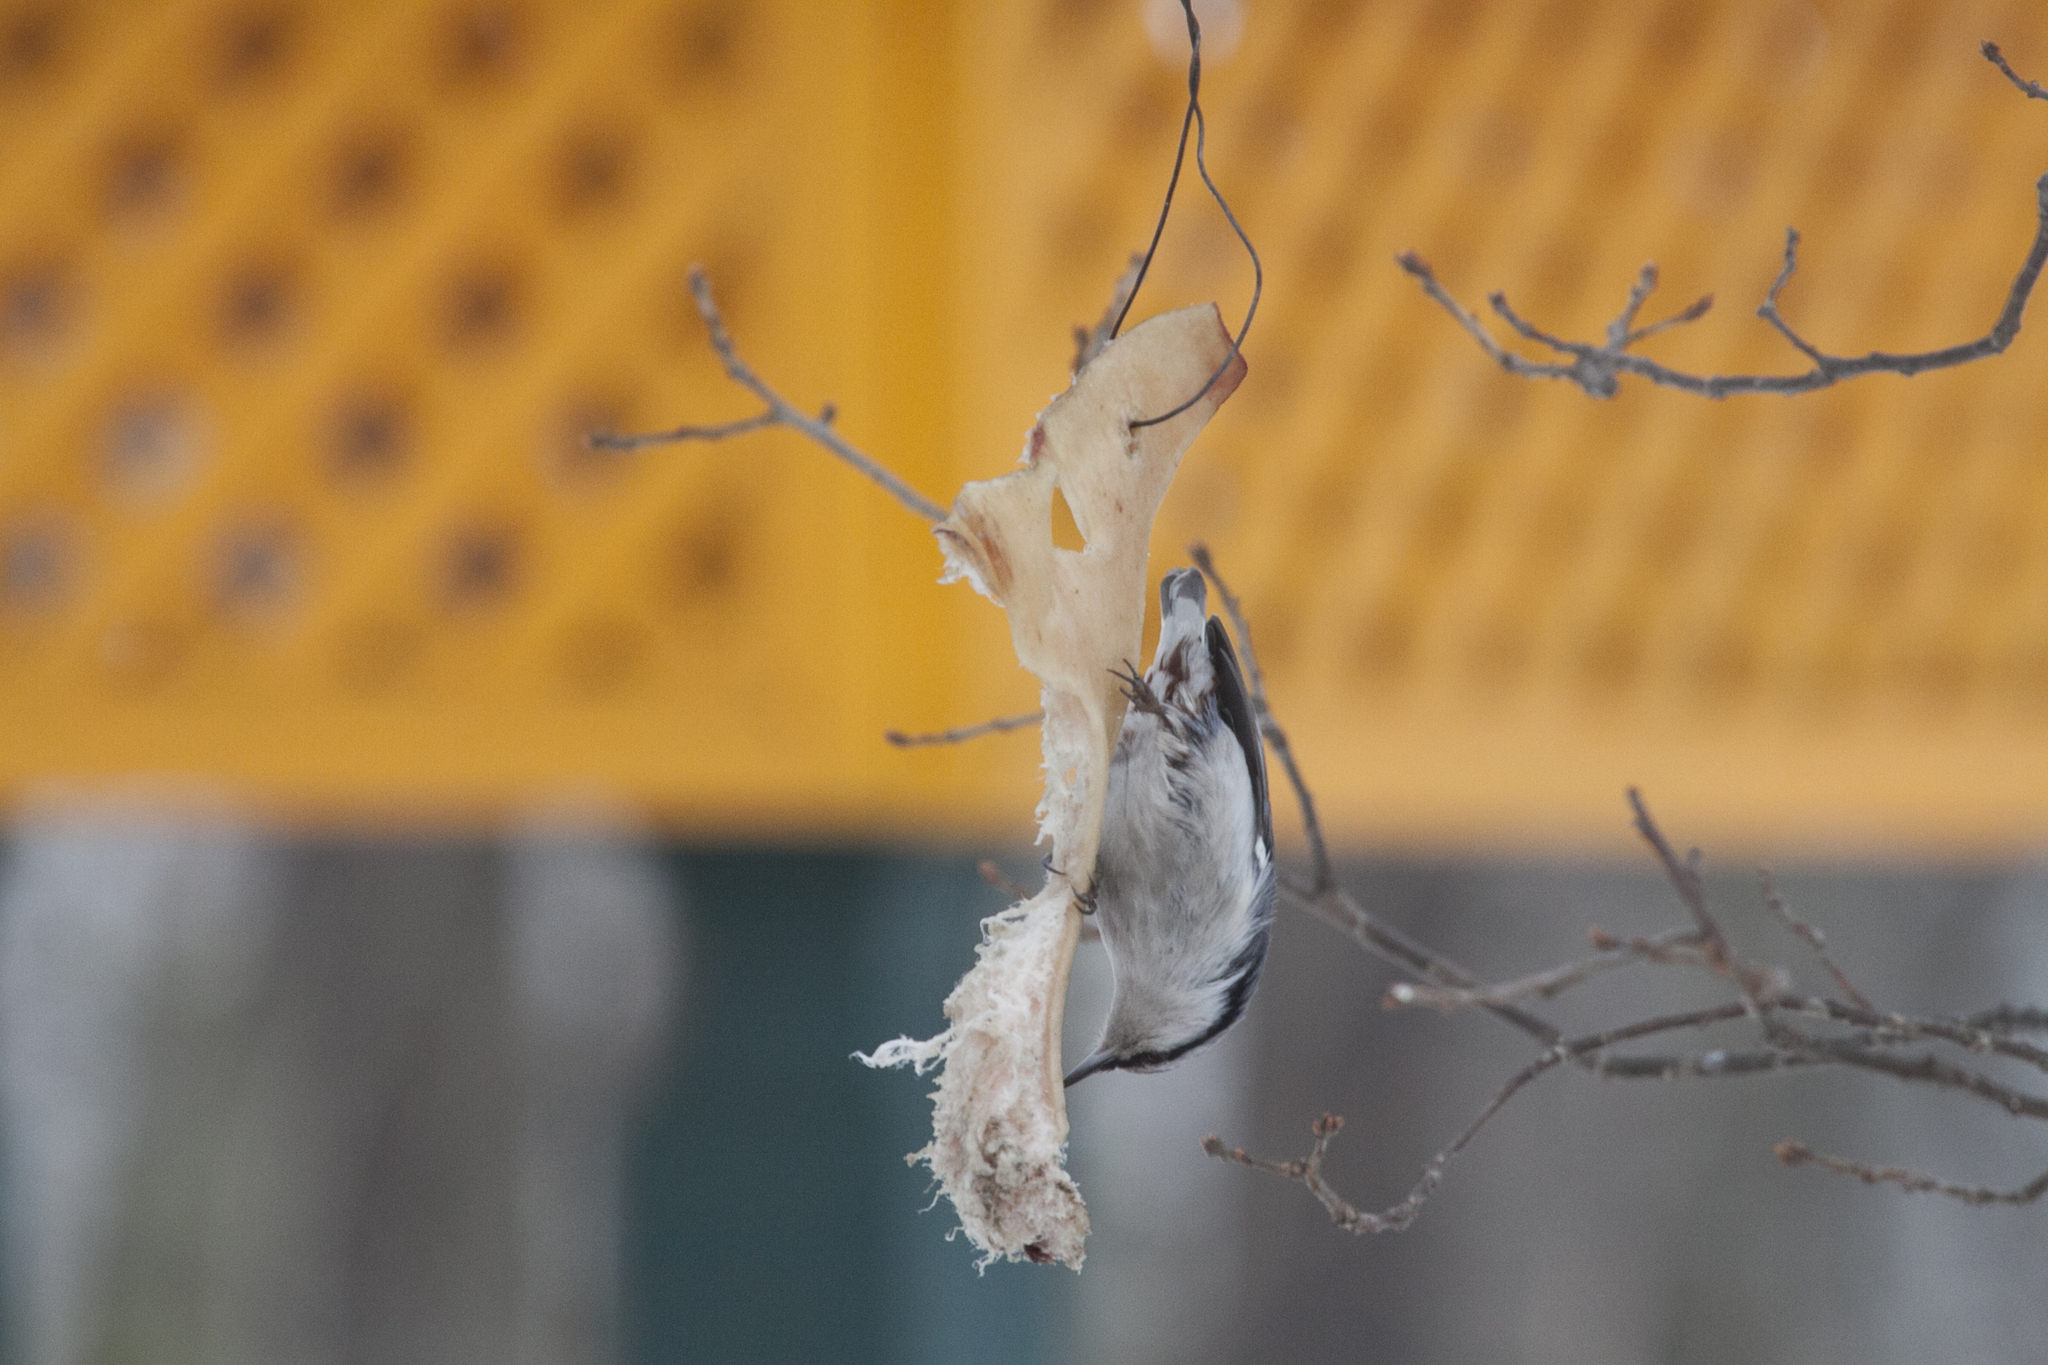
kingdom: Animalia
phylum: Chordata
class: Aves
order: Passeriformes
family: Sittidae
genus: Sitta
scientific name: Sitta europaea
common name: Eurasian nuthatch
